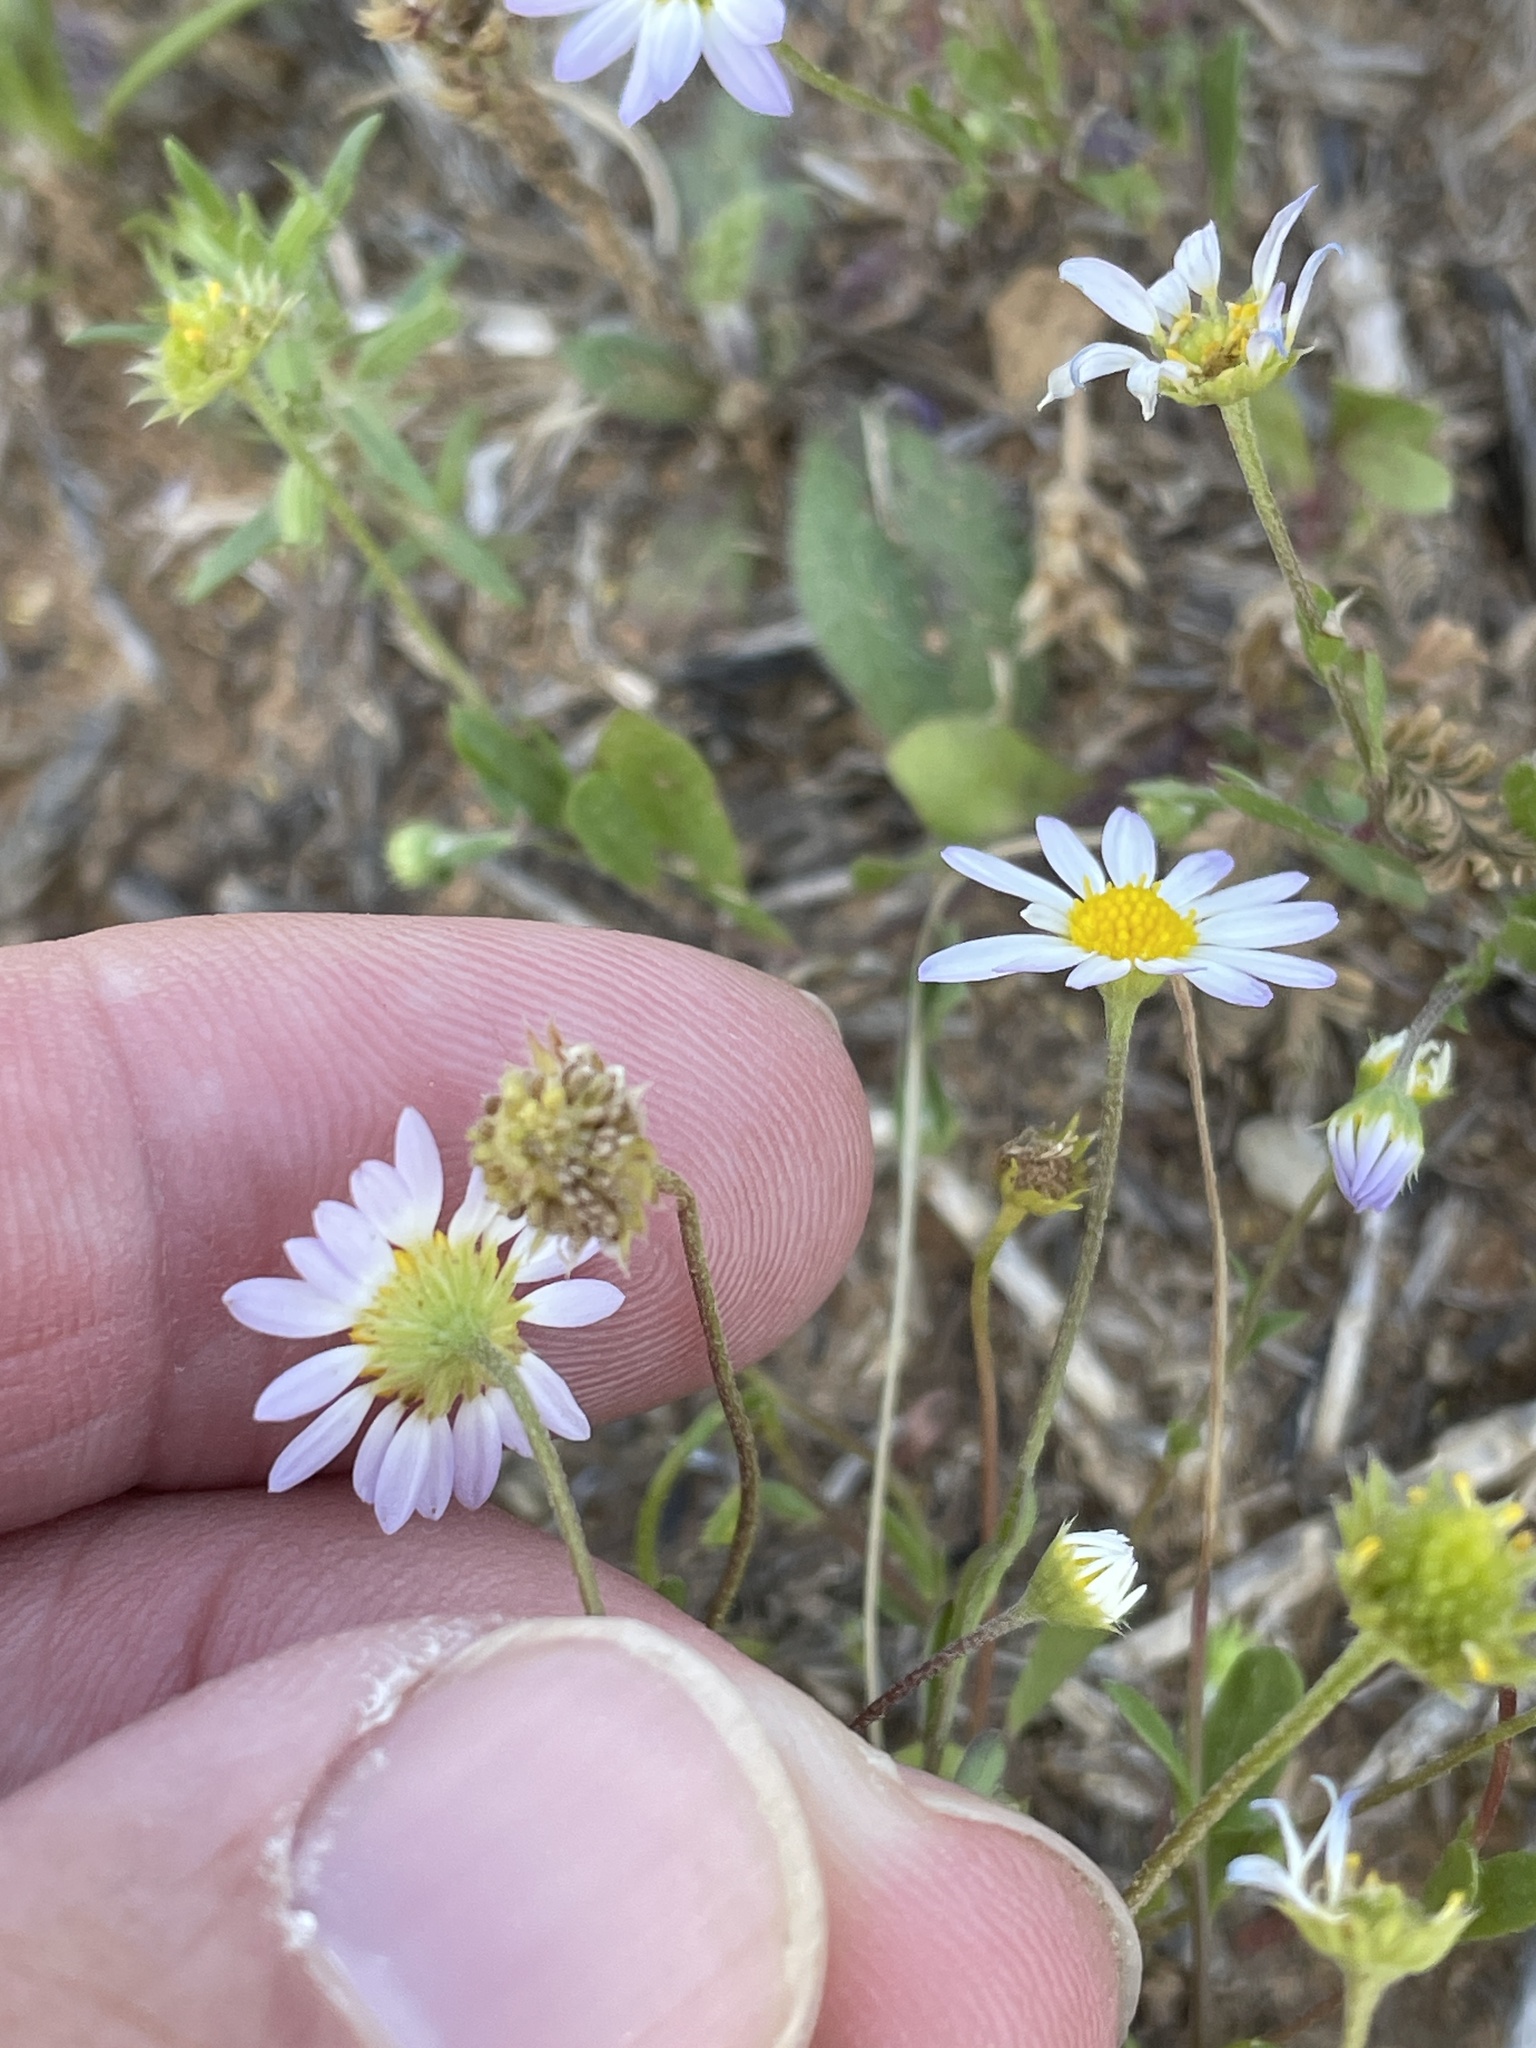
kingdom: Plantae
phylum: Tracheophyta
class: Magnoliopsida
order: Asterales
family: Asteraceae
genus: Astranthium
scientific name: Astranthium ciliatum
